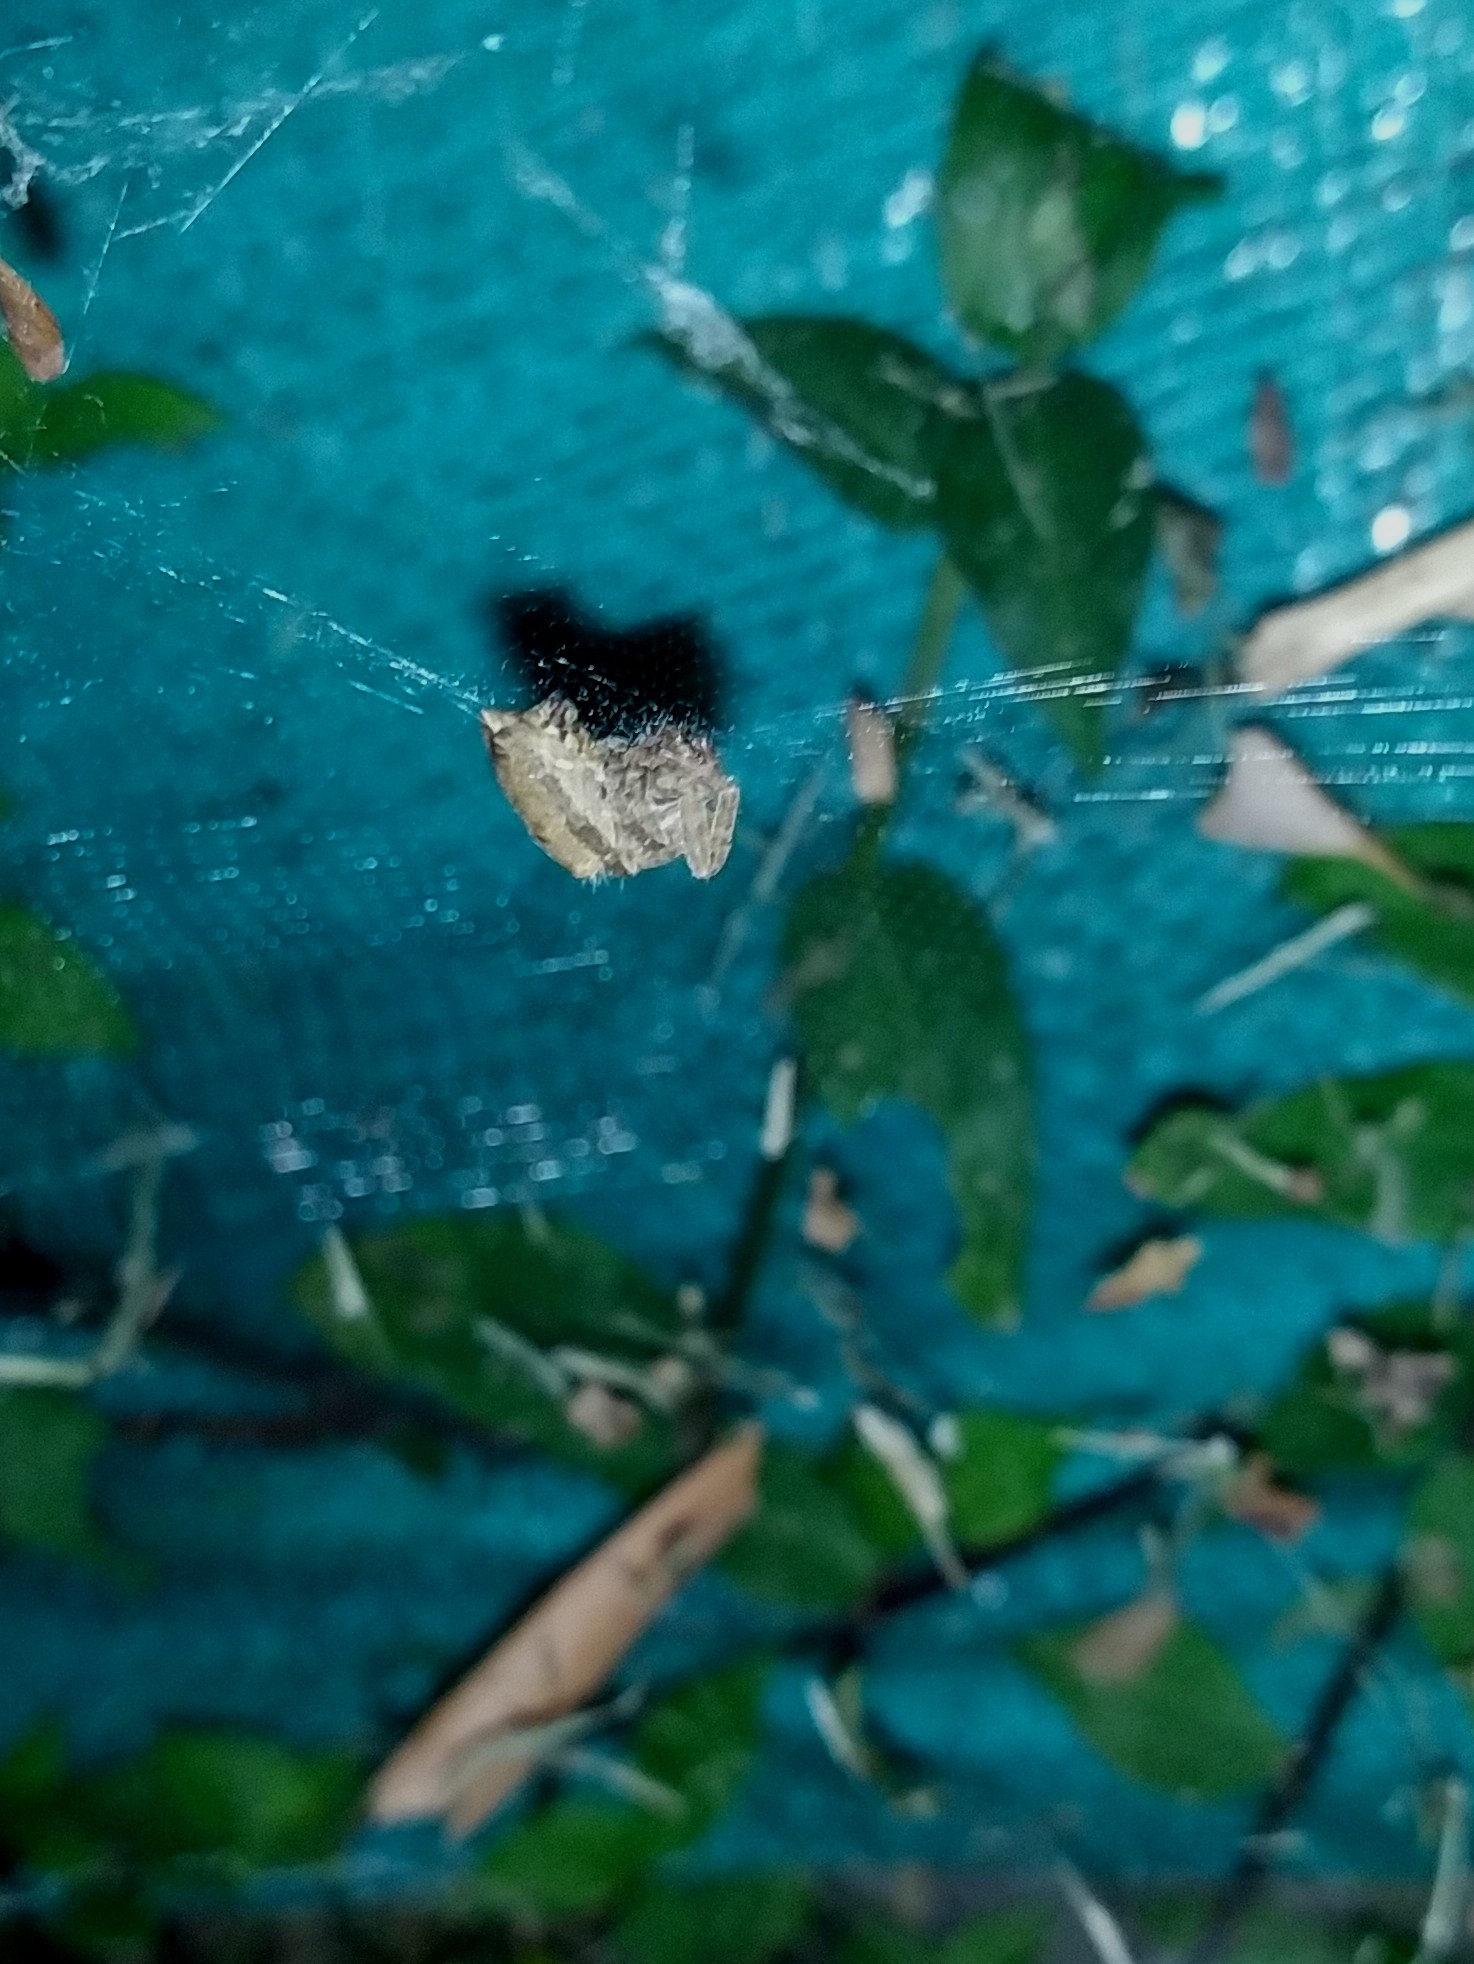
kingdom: Animalia
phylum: Arthropoda
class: Arachnida
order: Araneae
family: Araneidae
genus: Cyrtophora
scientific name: Cyrtophora citricola
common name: Orb weavers
